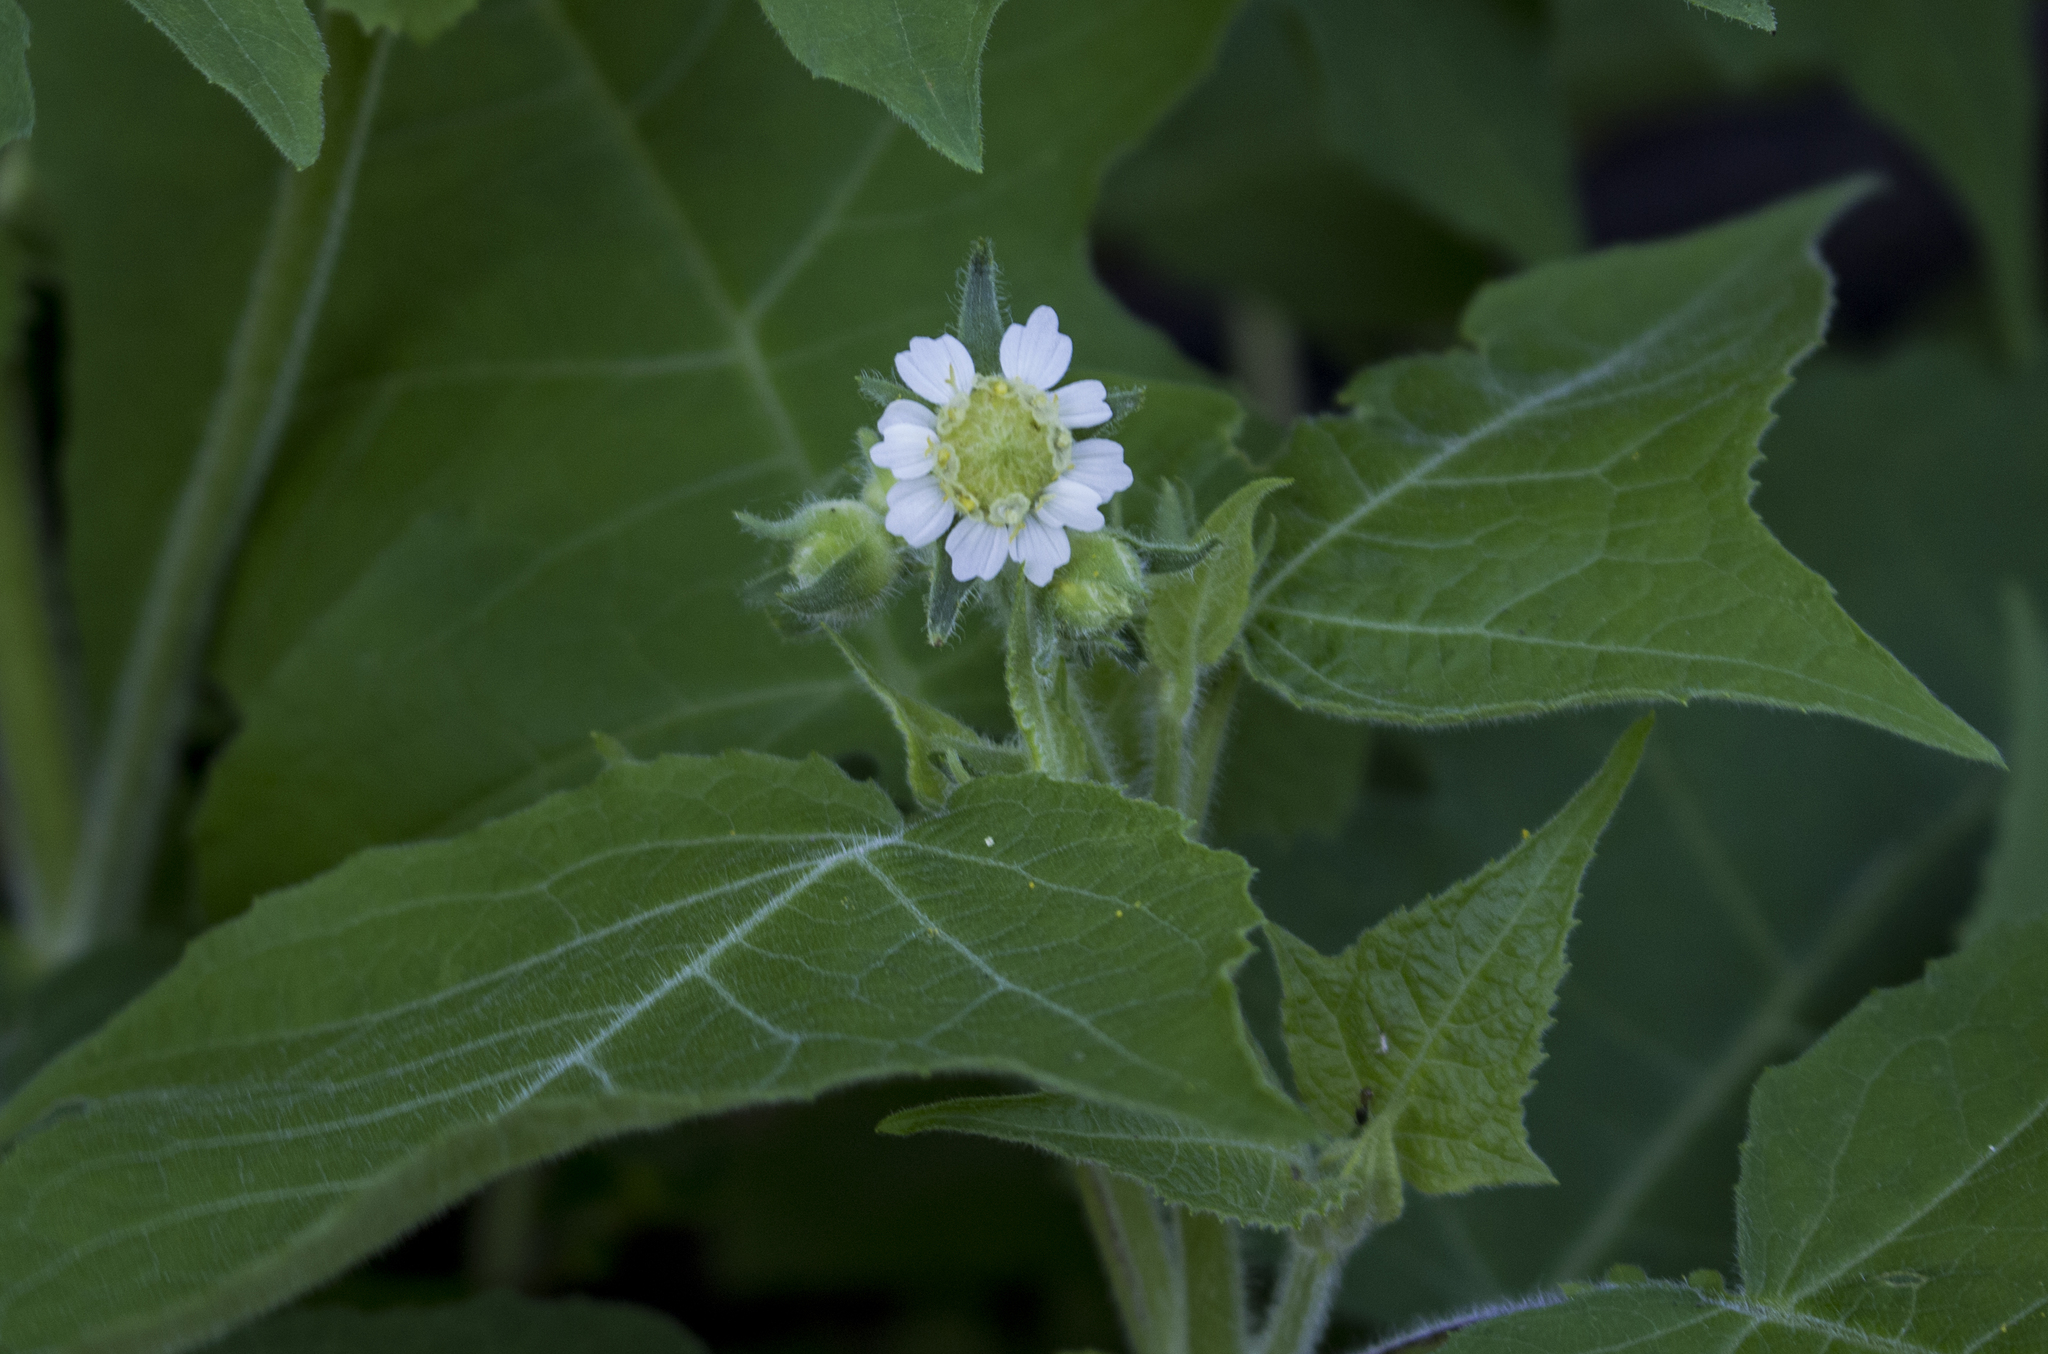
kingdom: Plantae
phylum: Tracheophyta
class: Magnoliopsida
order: Asterales
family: Asteraceae
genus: Polymnia
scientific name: Polymnia canadensis
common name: Pale-flowered leafcup
